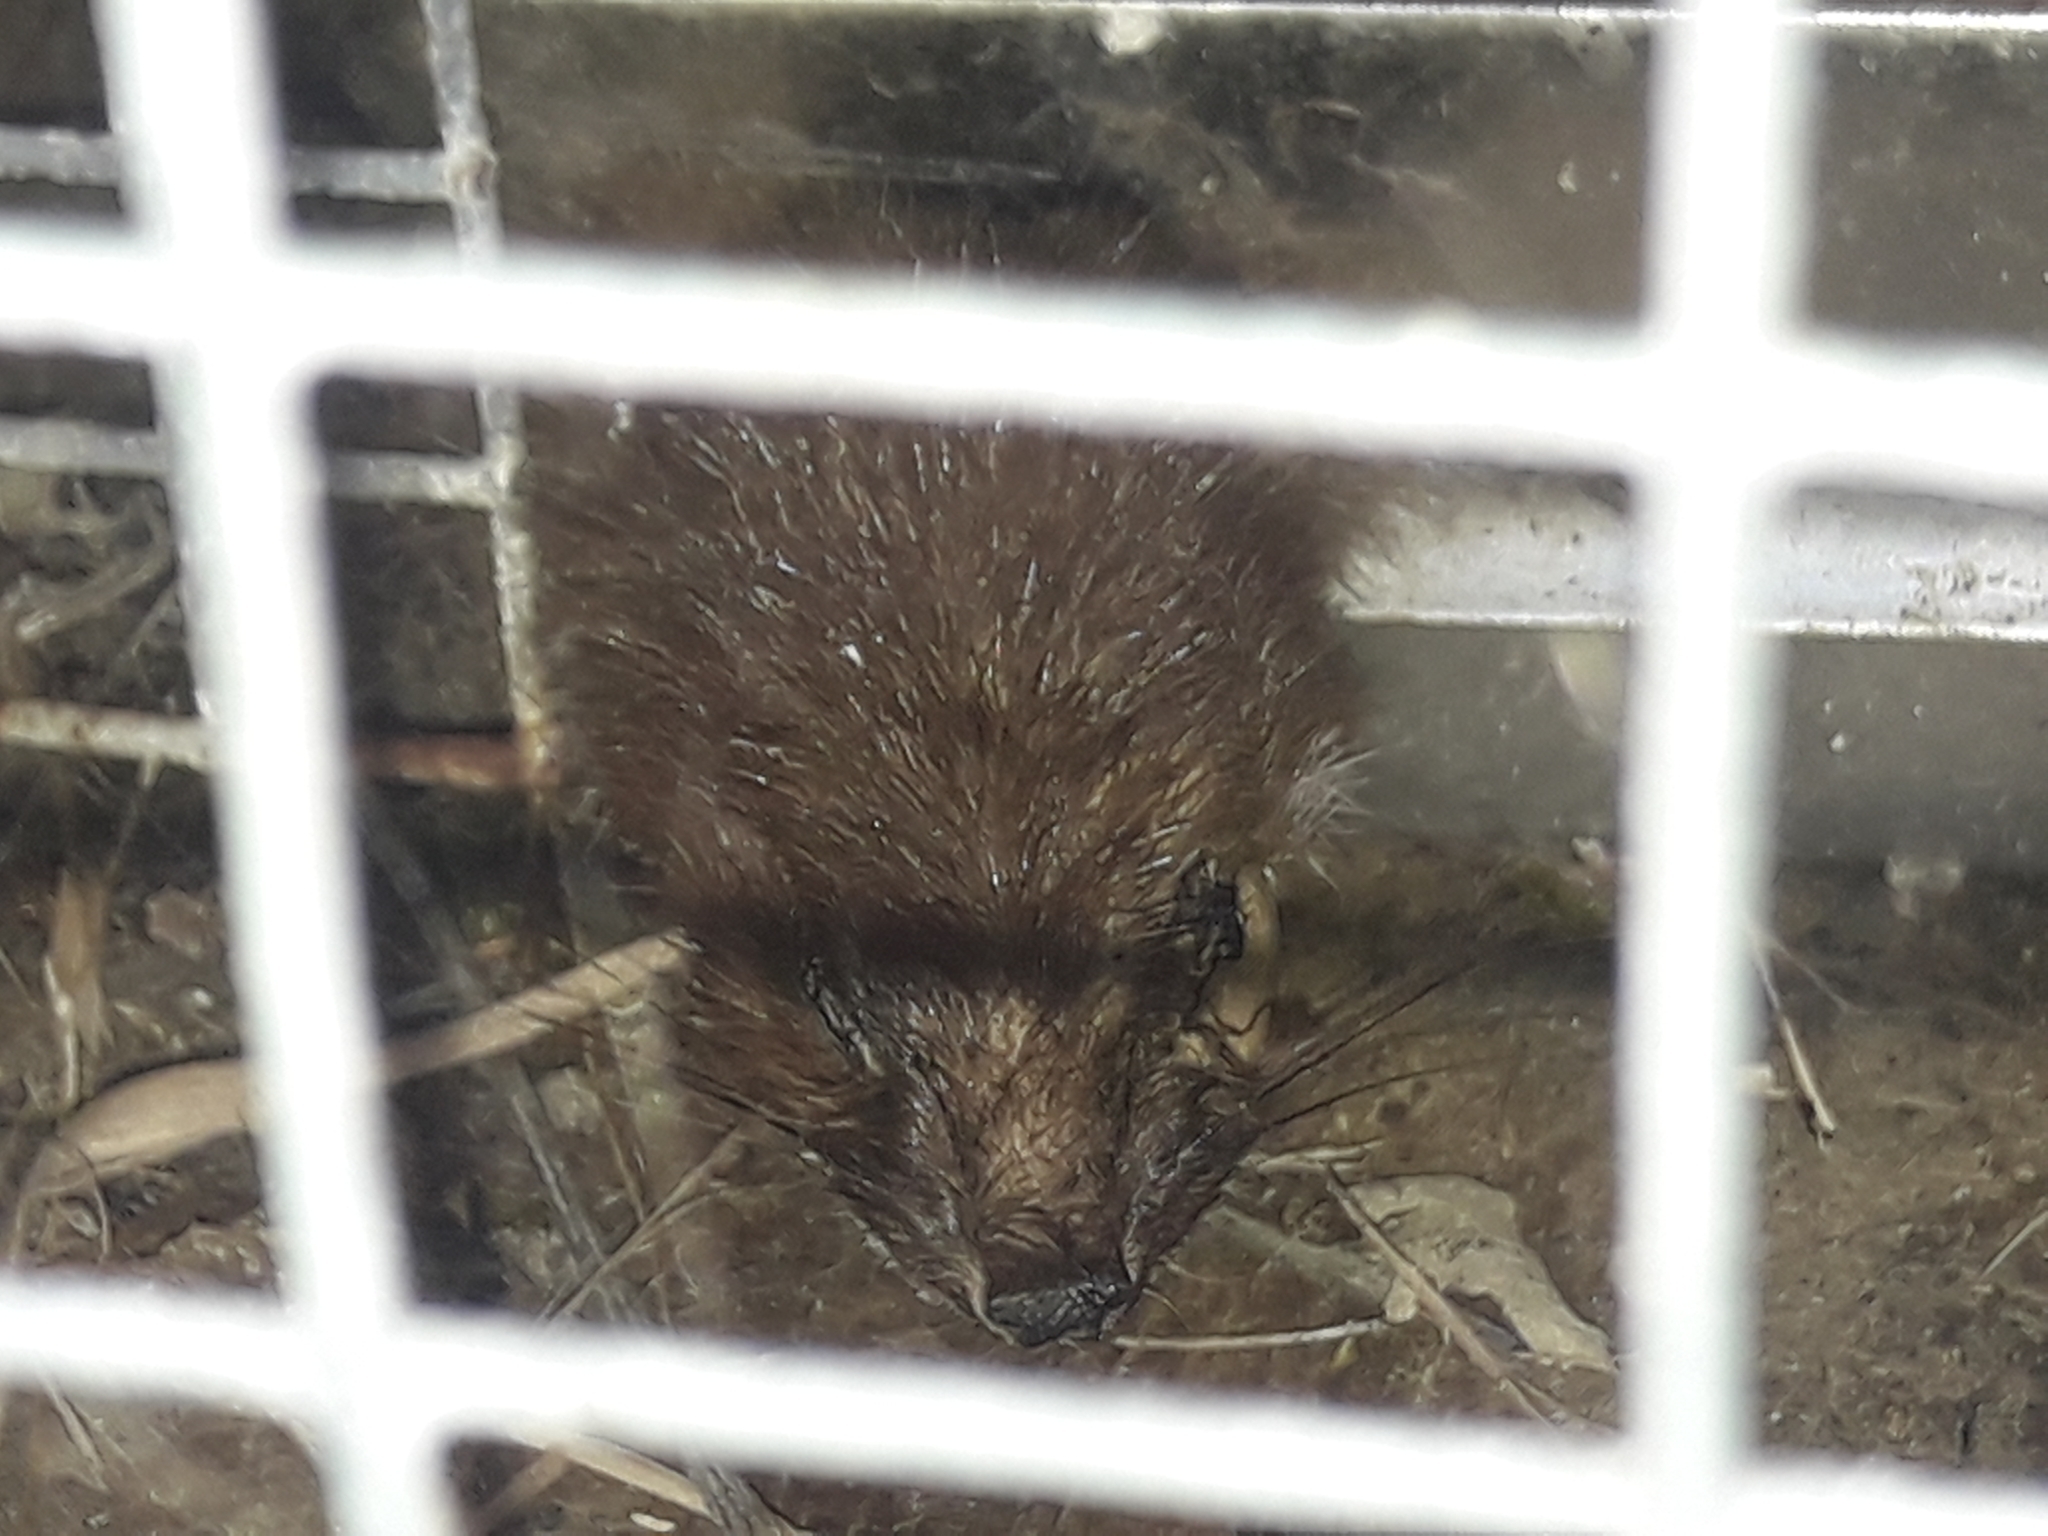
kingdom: Animalia
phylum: Chordata
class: Mammalia
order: Carnivora
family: Mustelidae
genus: Mustela
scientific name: Mustela erminea
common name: Stoat
